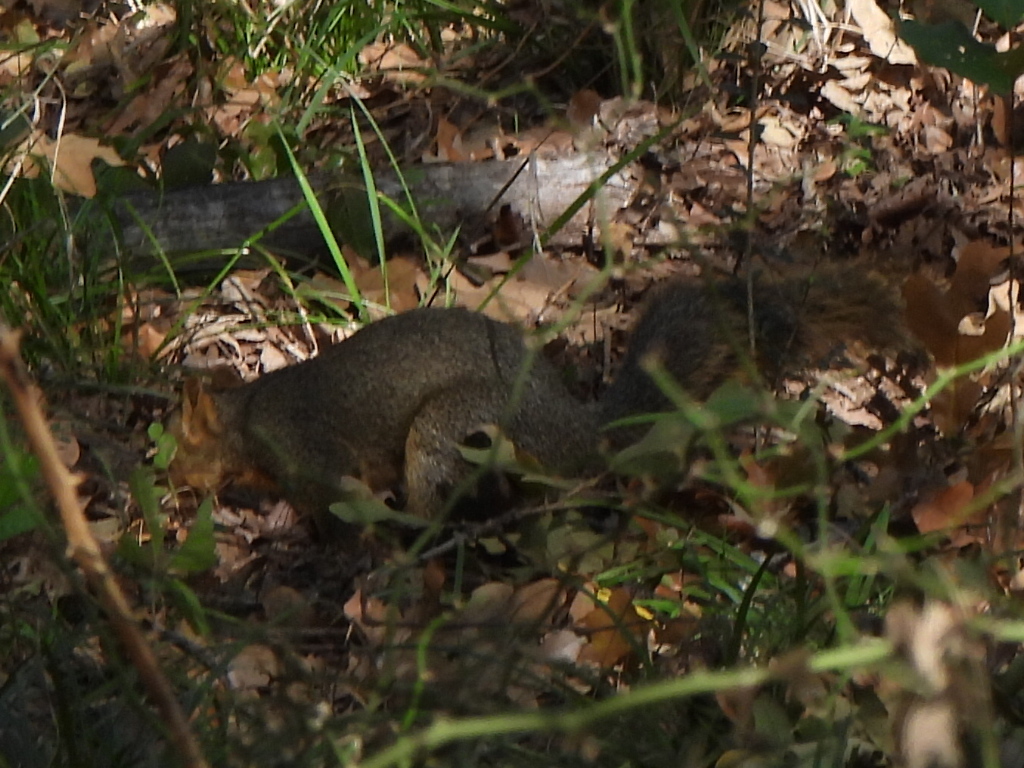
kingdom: Animalia
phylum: Chordata
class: Mammalia
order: Rodentia
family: Sciuridae
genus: Sciurus
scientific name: Sciurus niger
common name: Fox squirrel
